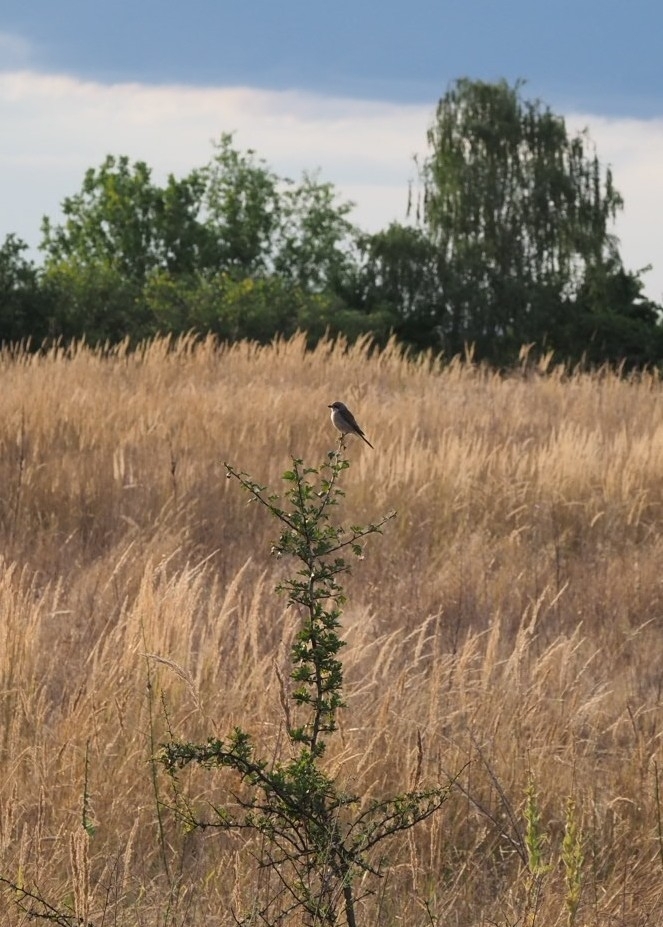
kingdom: Animalia
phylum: Chordata
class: Aves
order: Passeriformes
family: Laniidae
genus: Lanius
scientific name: Lanius collurio
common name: Red-backed shrike
